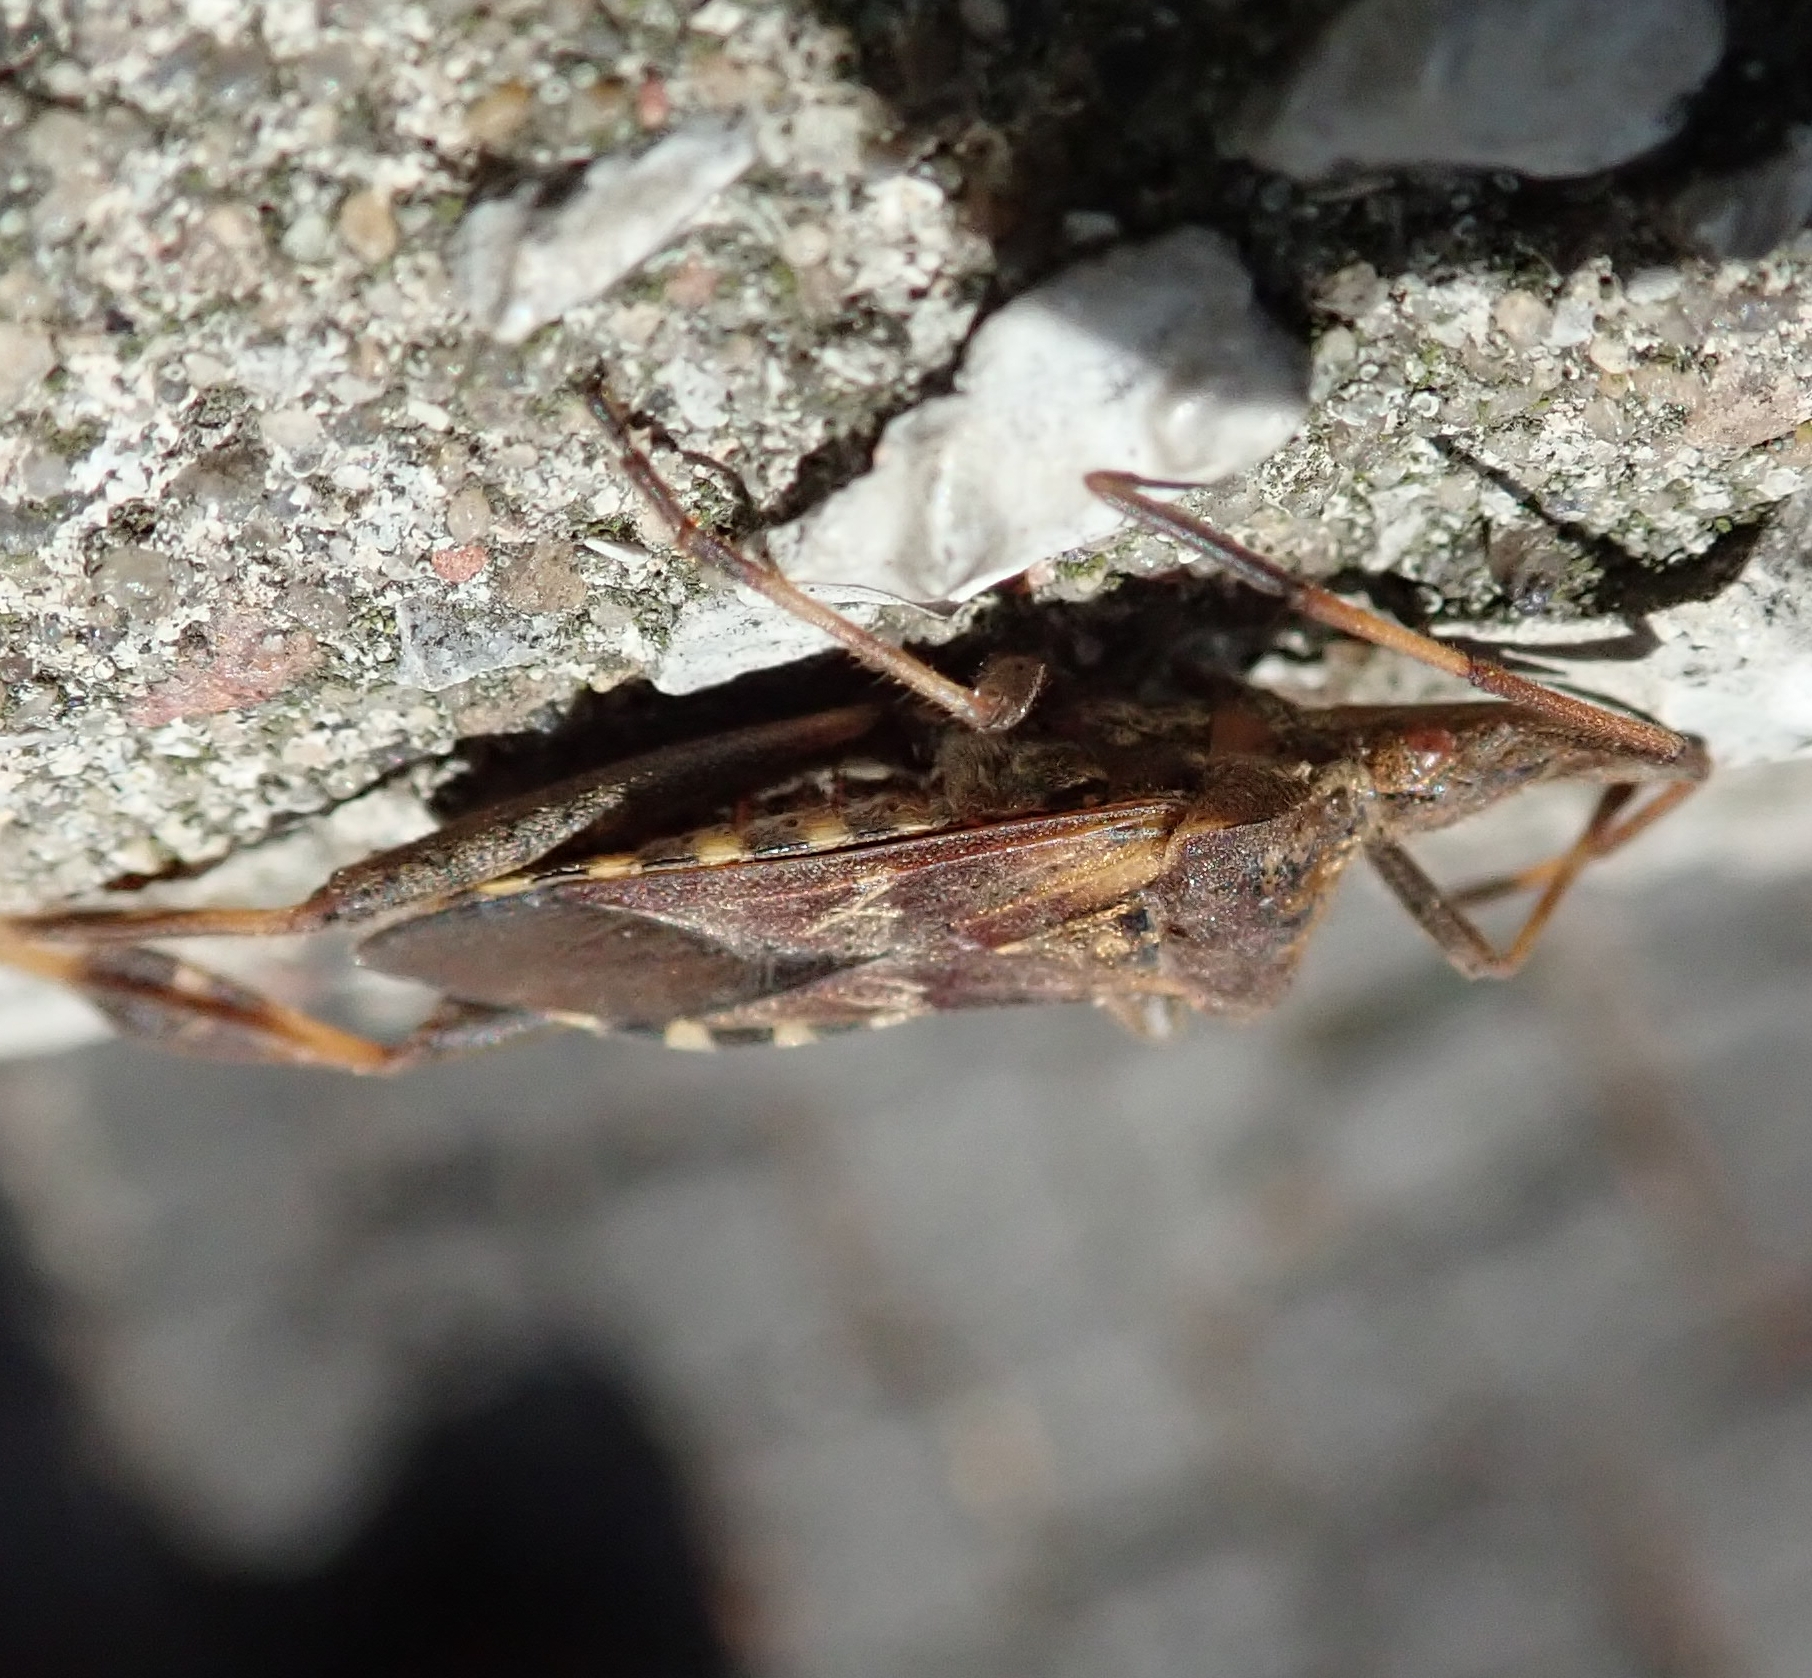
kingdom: Animalia
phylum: Arthropoda
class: Insecta
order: Hemiptera
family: Coreidae
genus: Leptoglossus
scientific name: Leptoglossus occidentalis
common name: Western conifer-seed bug
